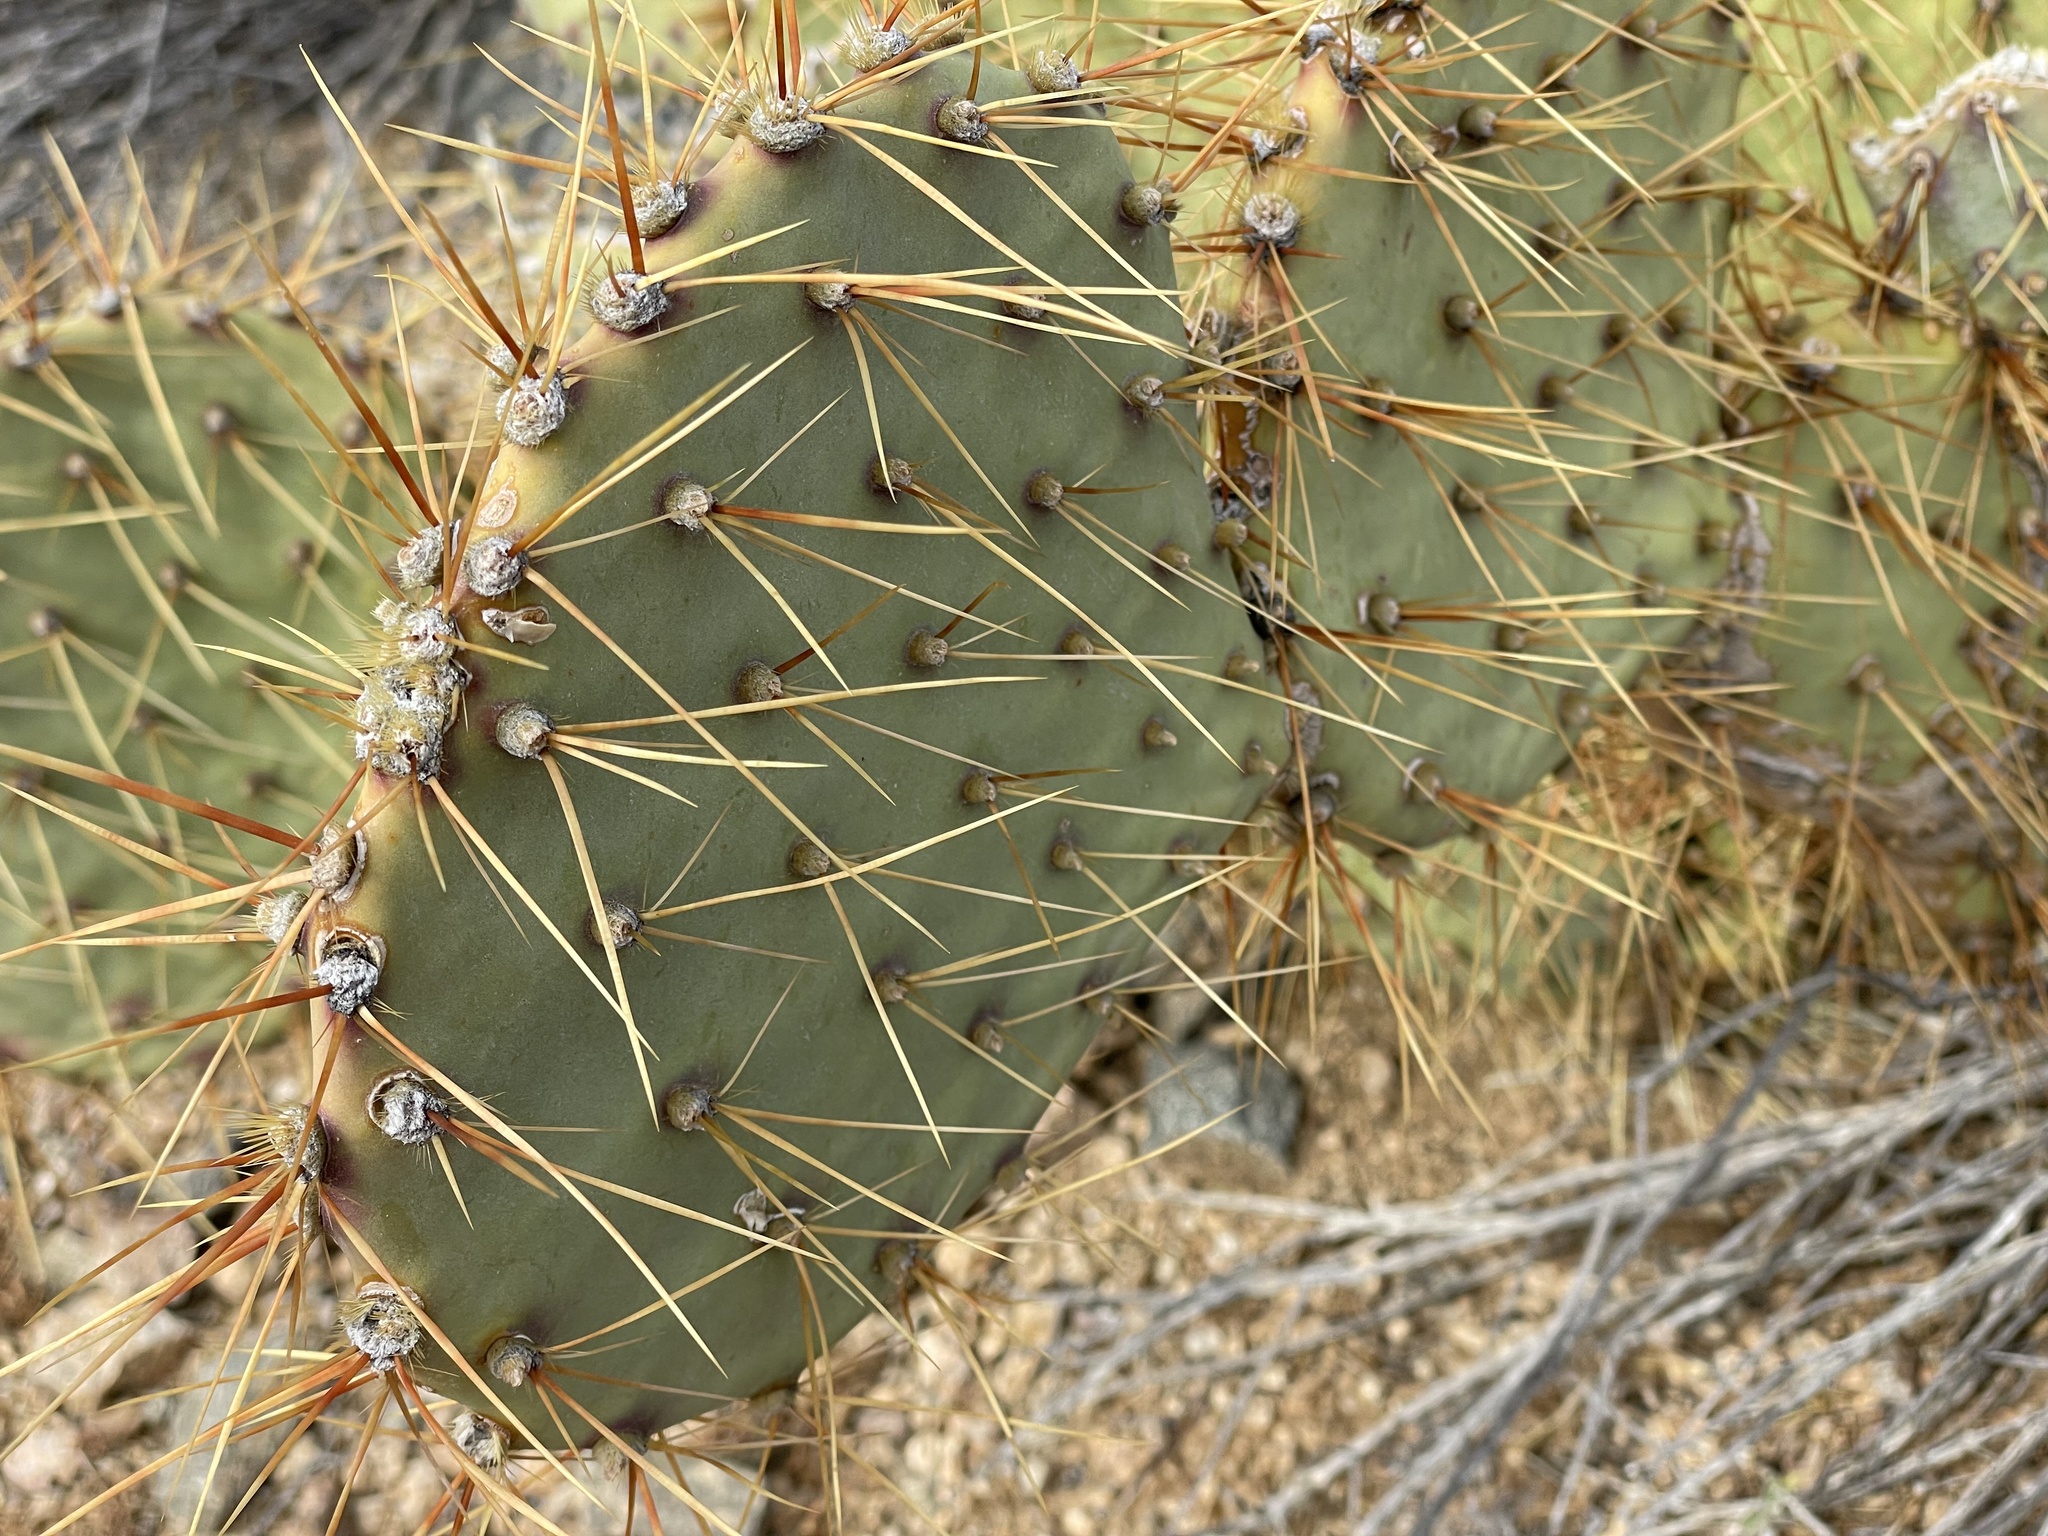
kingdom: Plantae
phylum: Tracheophyta
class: Magnoliopsida
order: Caryophyllales
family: Cactaceae
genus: Opuntia
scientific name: Opuntia curvispina
